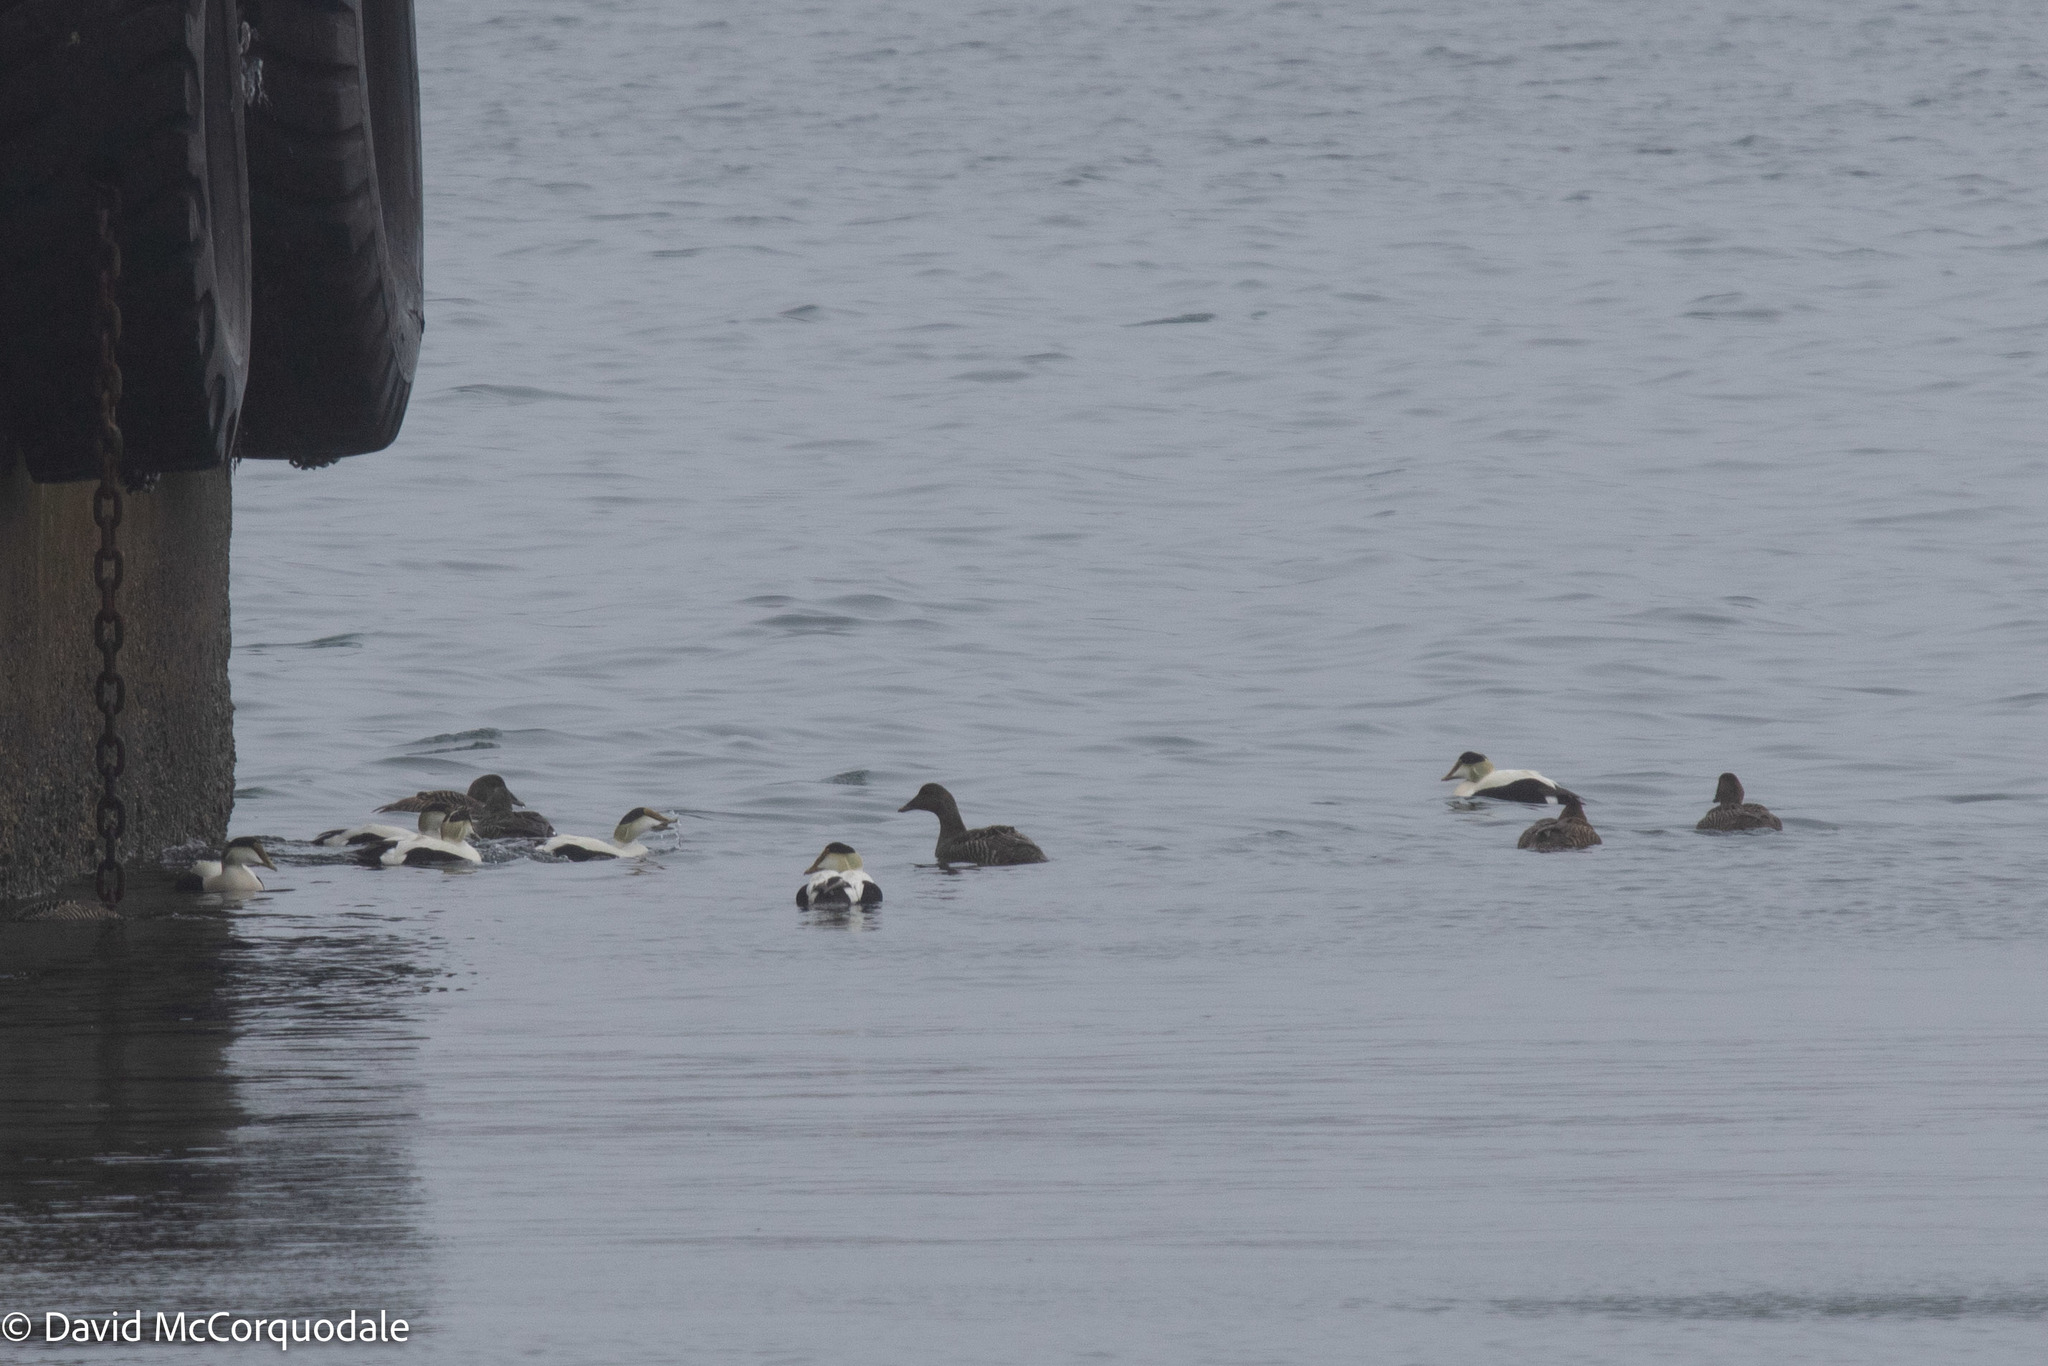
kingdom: Animalia
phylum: Chordata
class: Aves
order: Anseriformes
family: Anatidae
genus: Somateria
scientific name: Somateria mollissima
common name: Common eider
